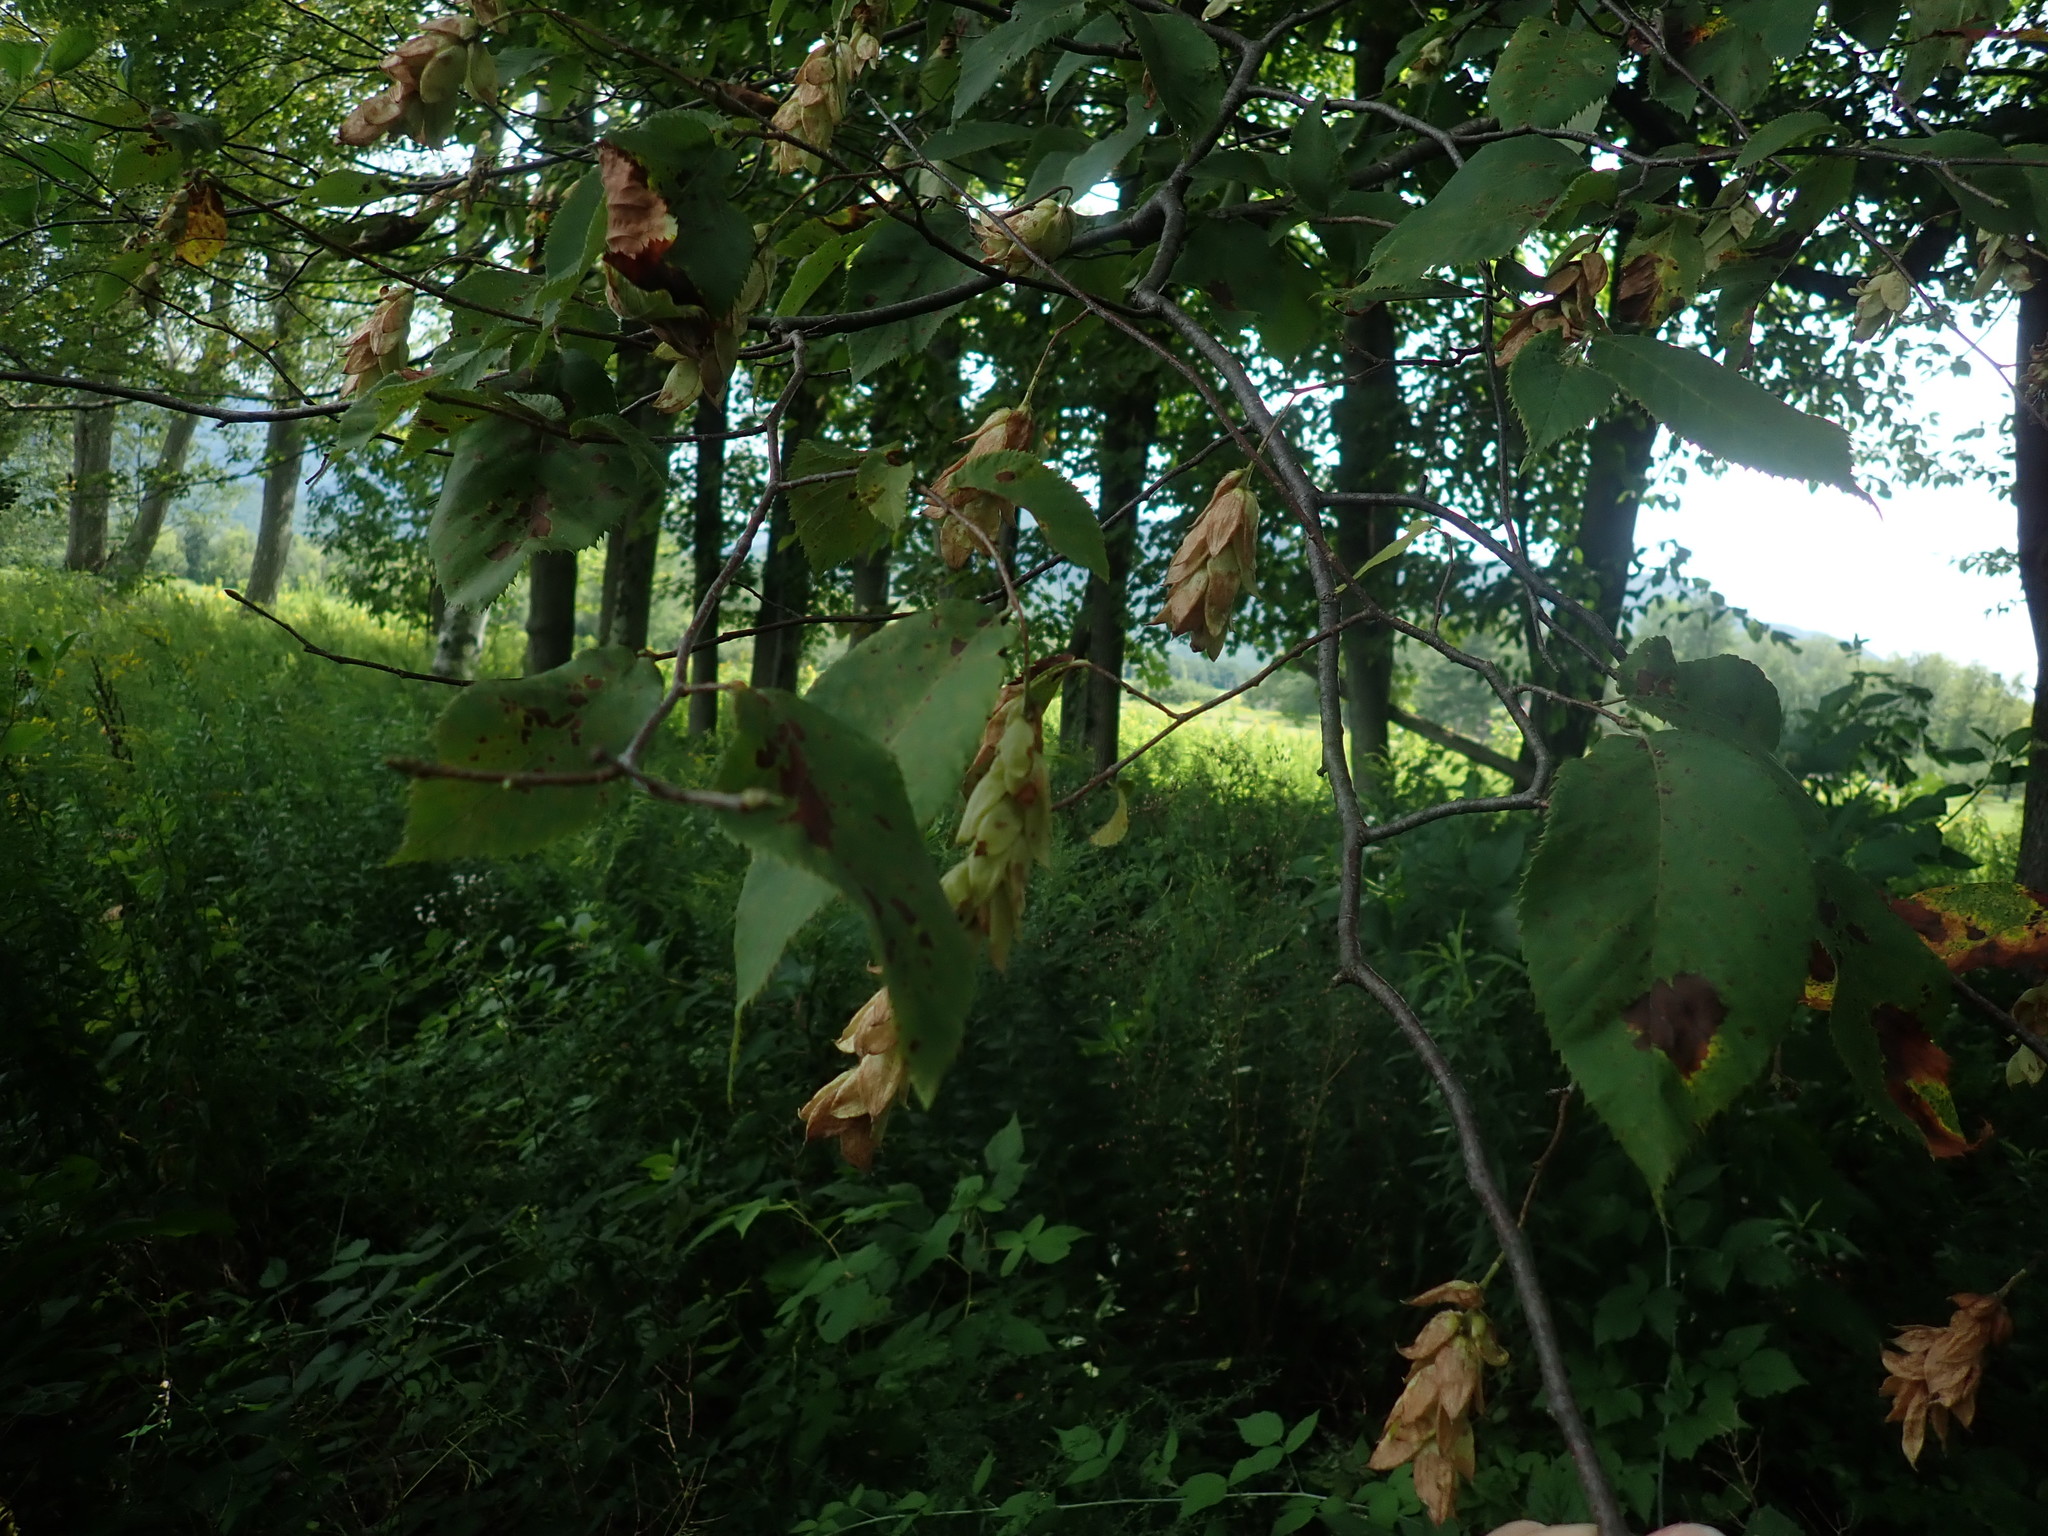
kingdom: Plantae
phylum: Tracheophyta
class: Magnoliopsida
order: Fagales
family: Betulaceae
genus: Ostrya
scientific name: Ostrya virginiana
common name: Ironwood
